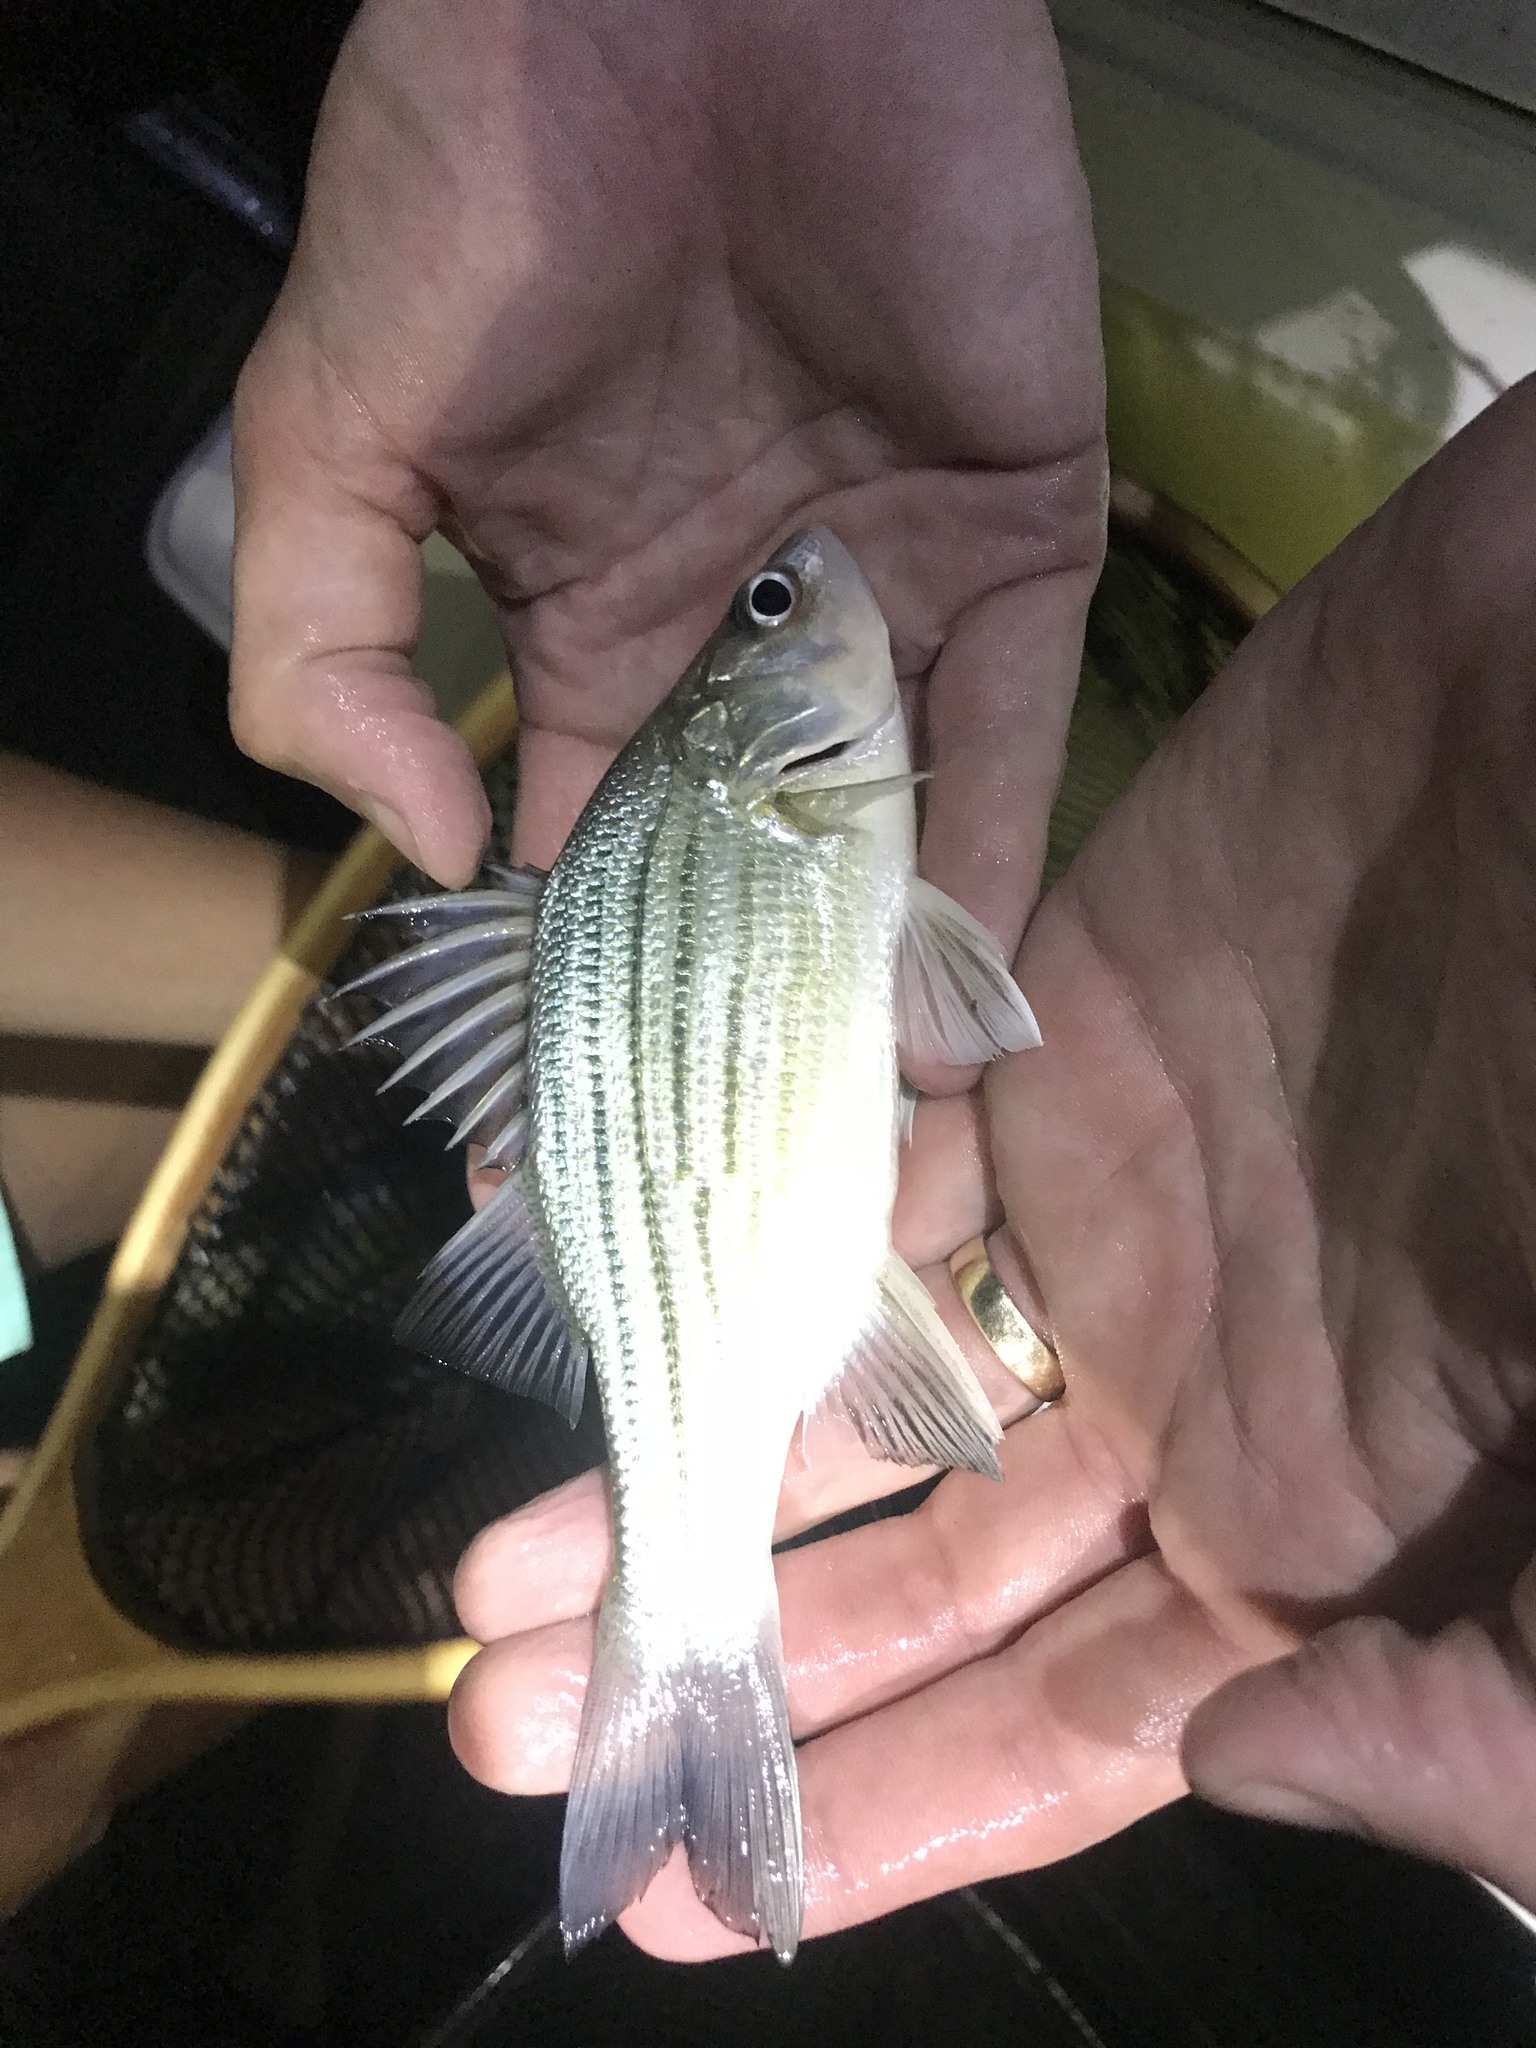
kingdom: Animalia
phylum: Chordata
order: Perciformes
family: Moronidae
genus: Morone
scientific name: Morone mississippiensis
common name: Yellow bass
